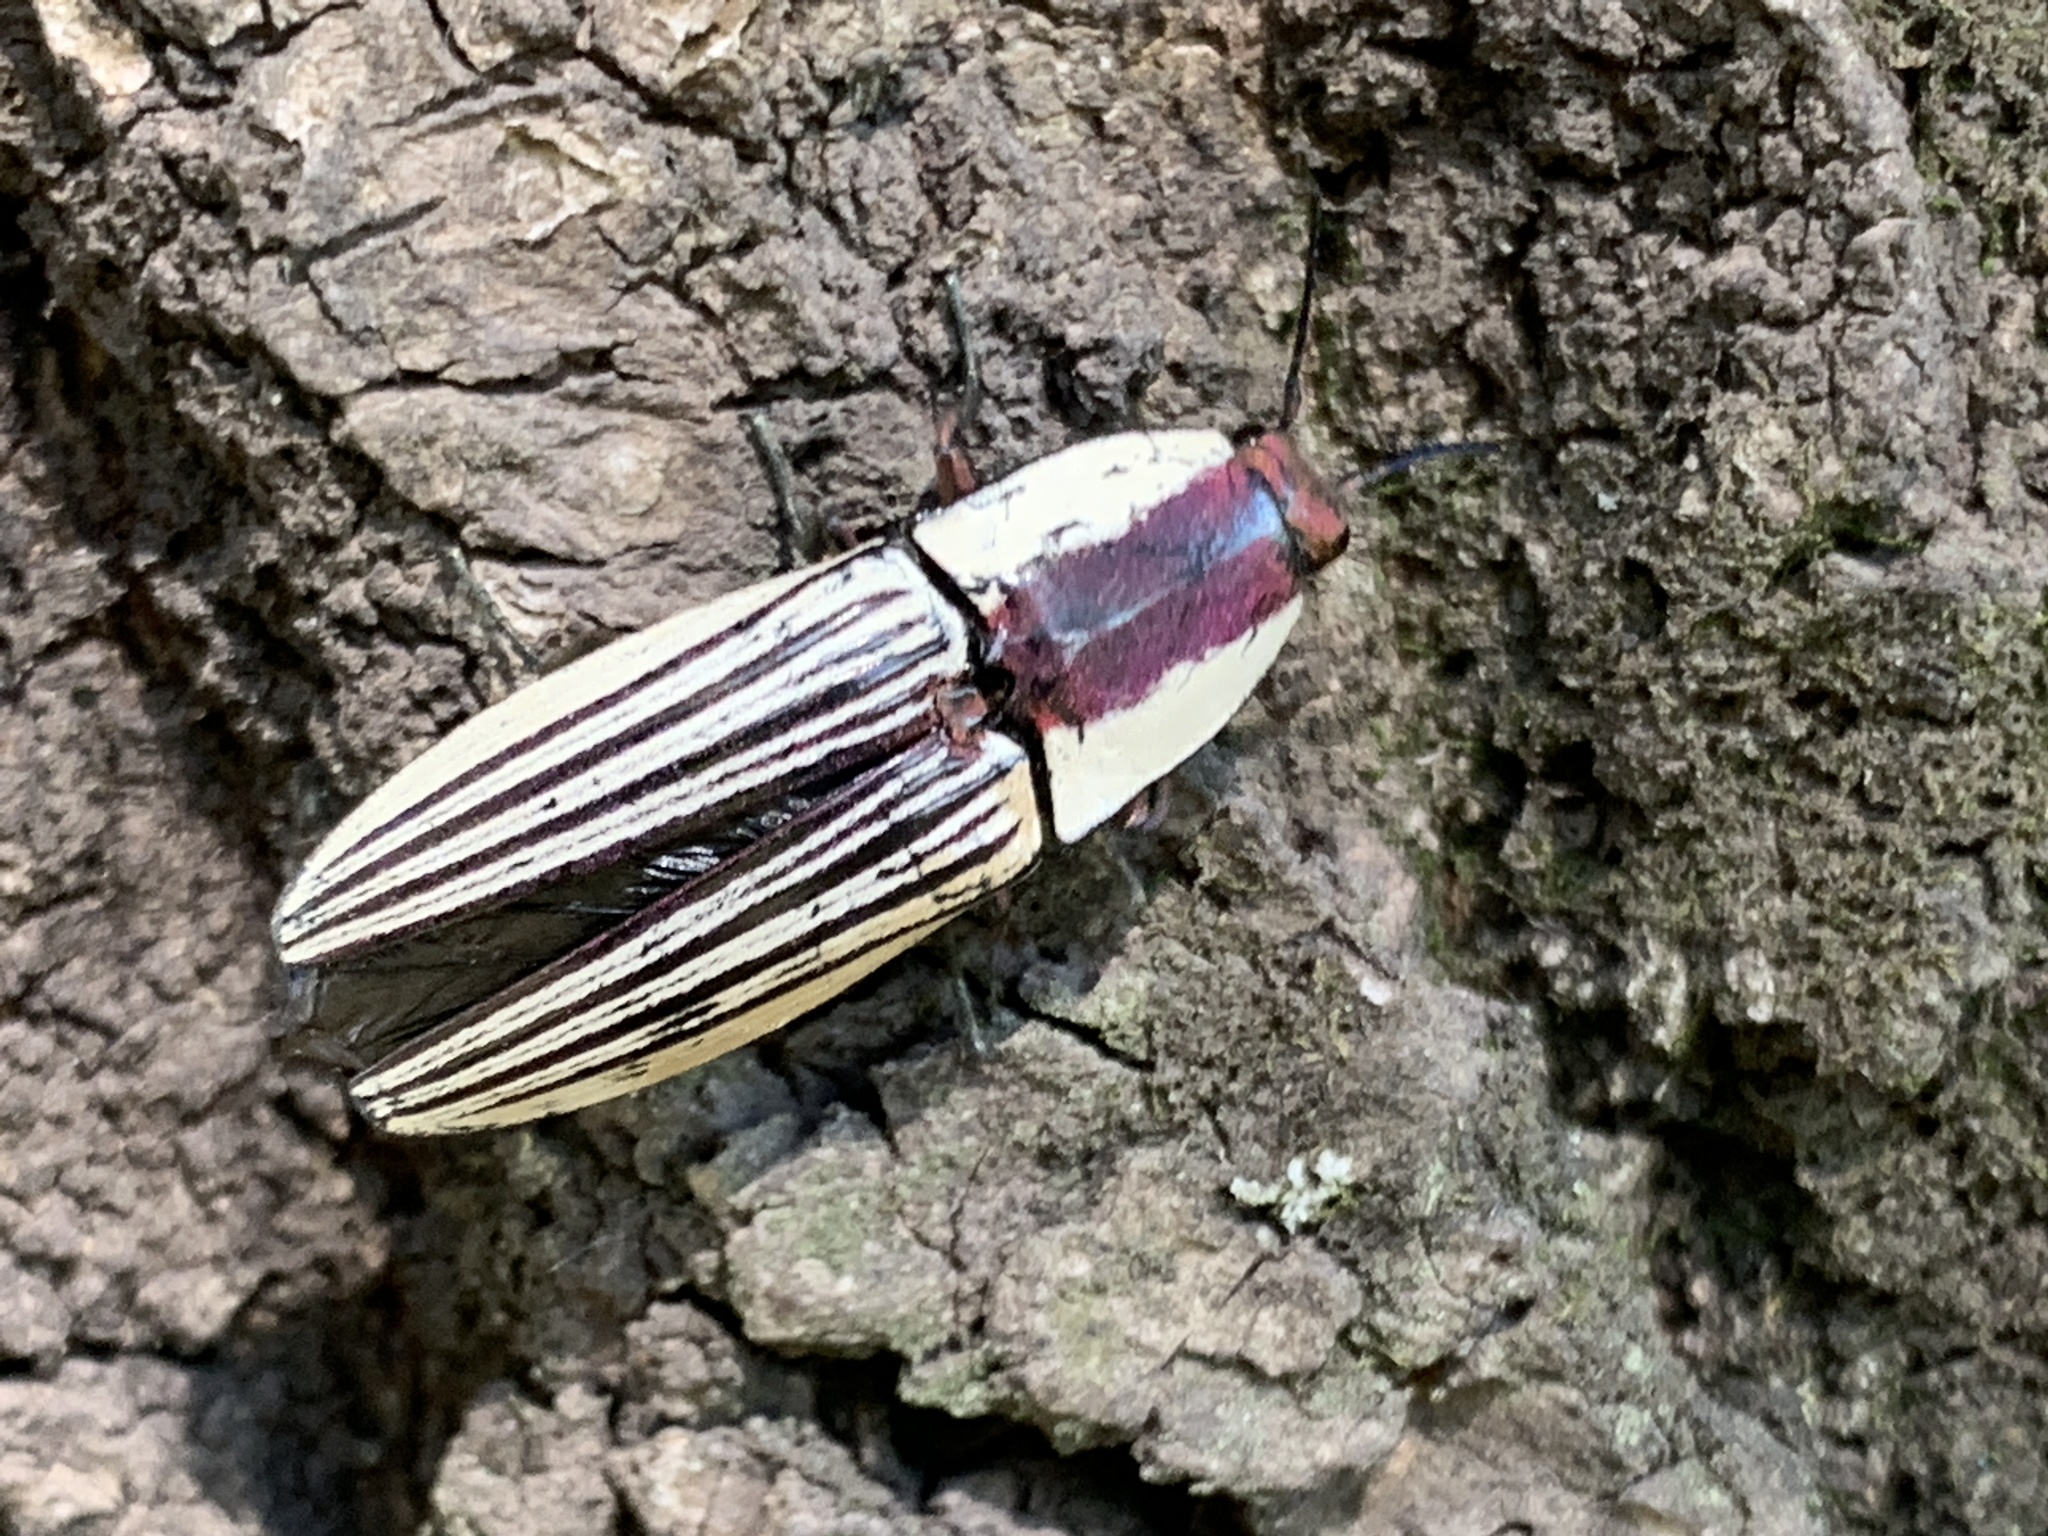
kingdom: Animalia
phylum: Arthropoda
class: Insecta
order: Coleoptera
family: Elateridae
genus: Chalcolepidius
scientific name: Chalcolepidius
